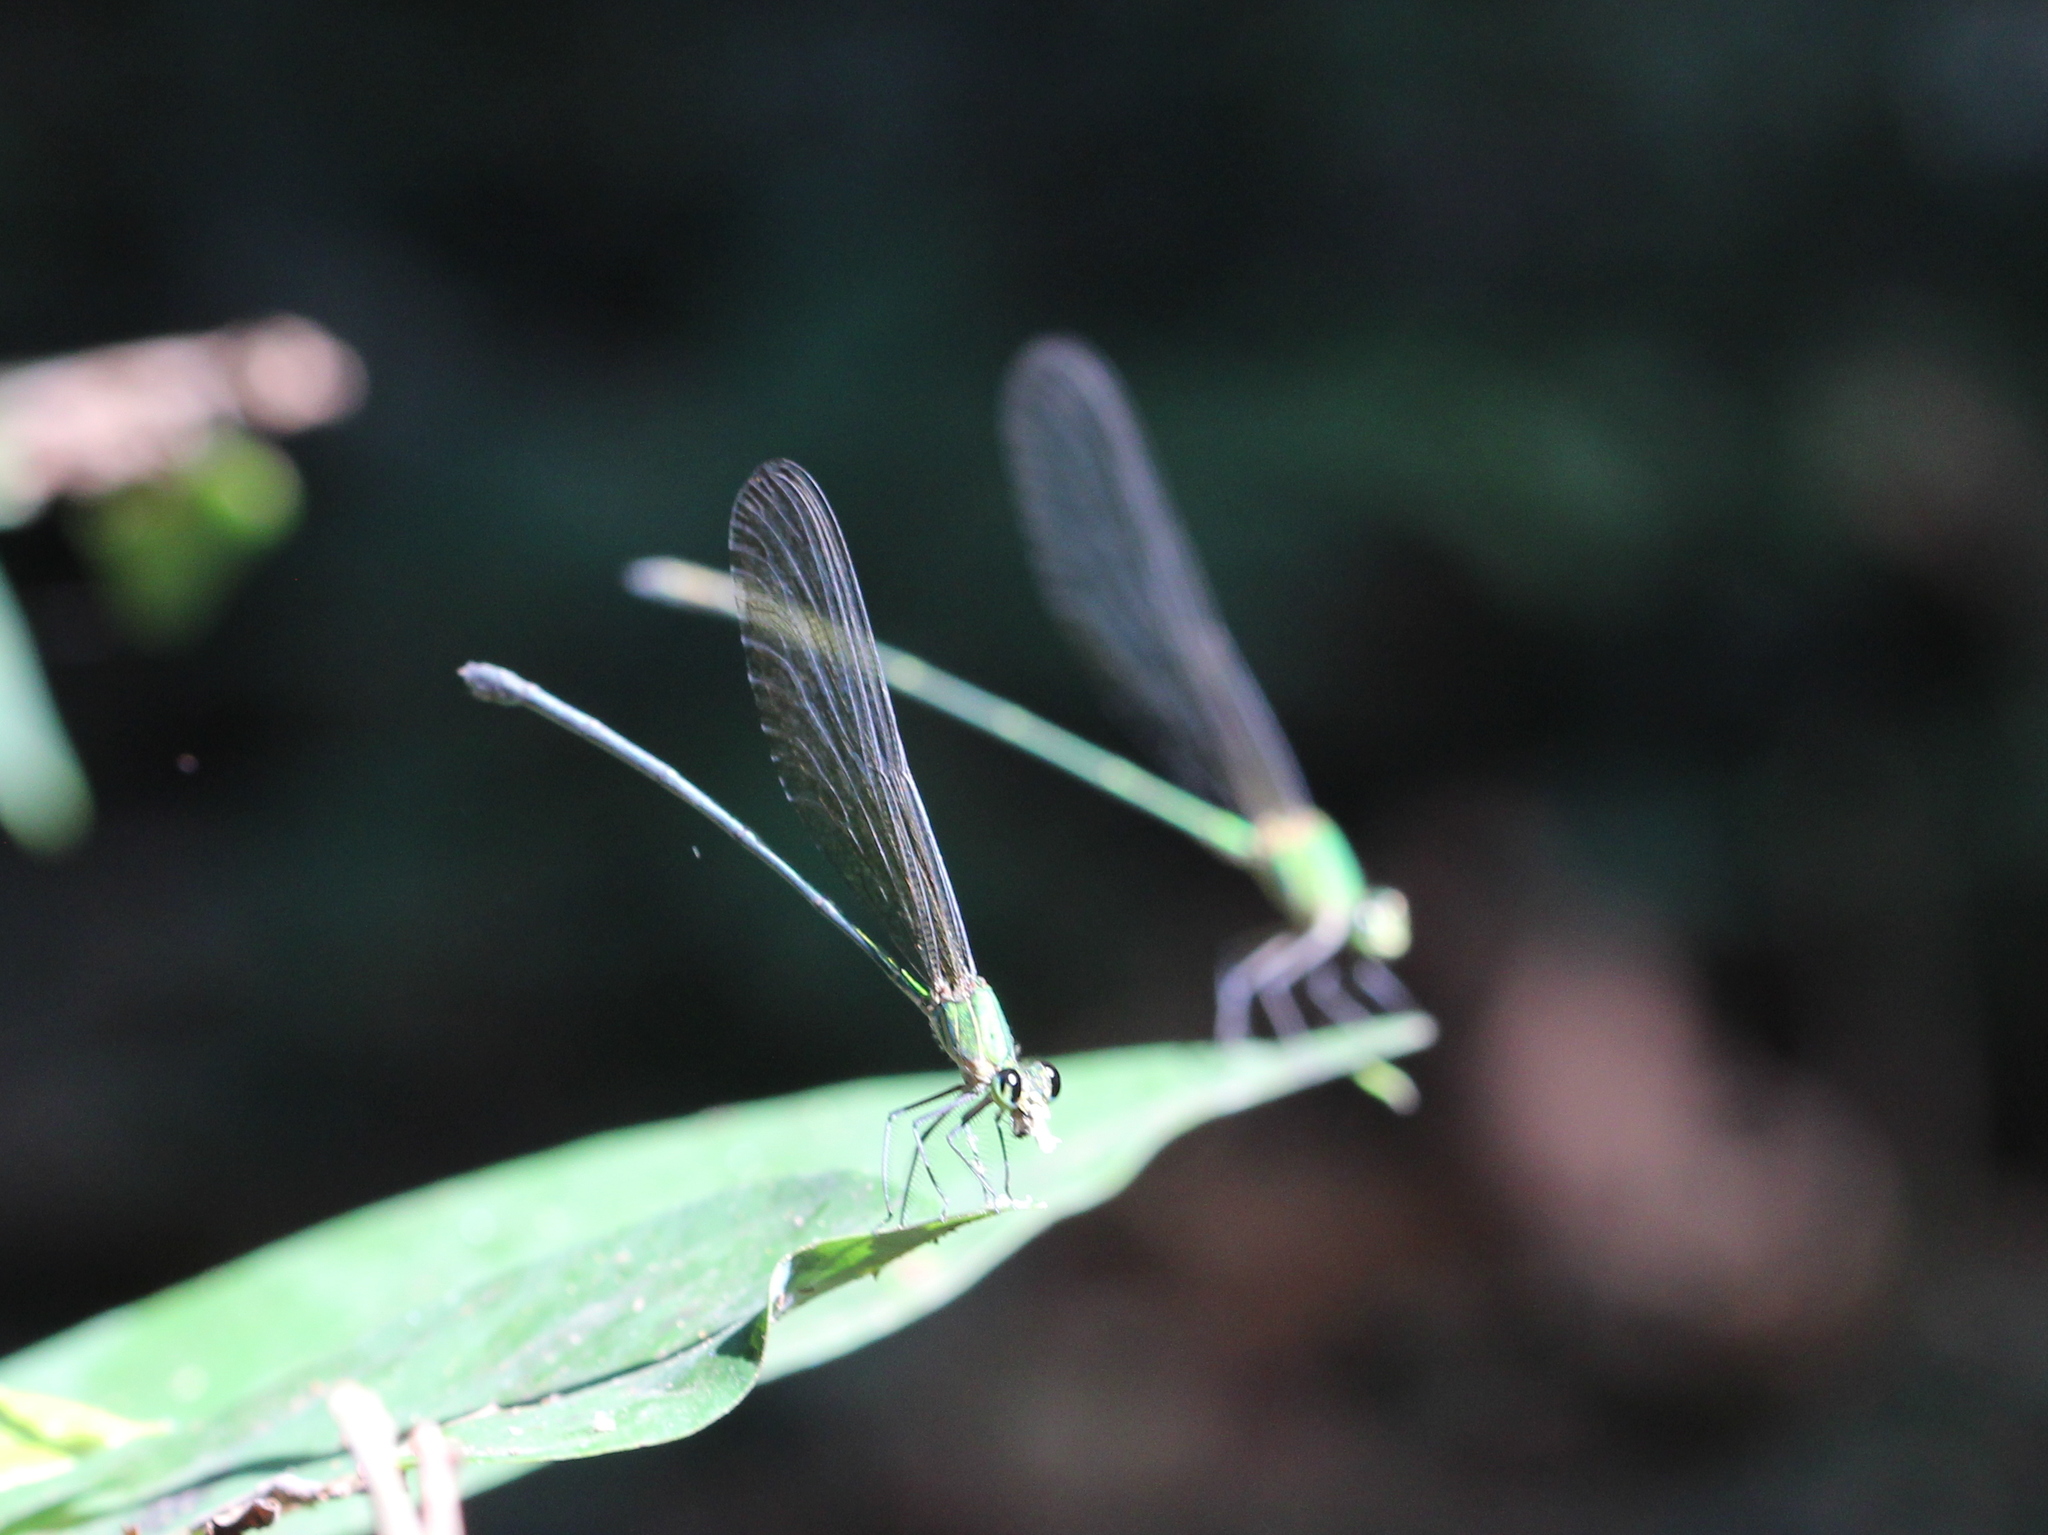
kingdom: Animalia
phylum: Arthropoda
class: Insecta
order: Odonata
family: Calopterygidae
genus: Vestalis
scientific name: Vestalis gracilis
